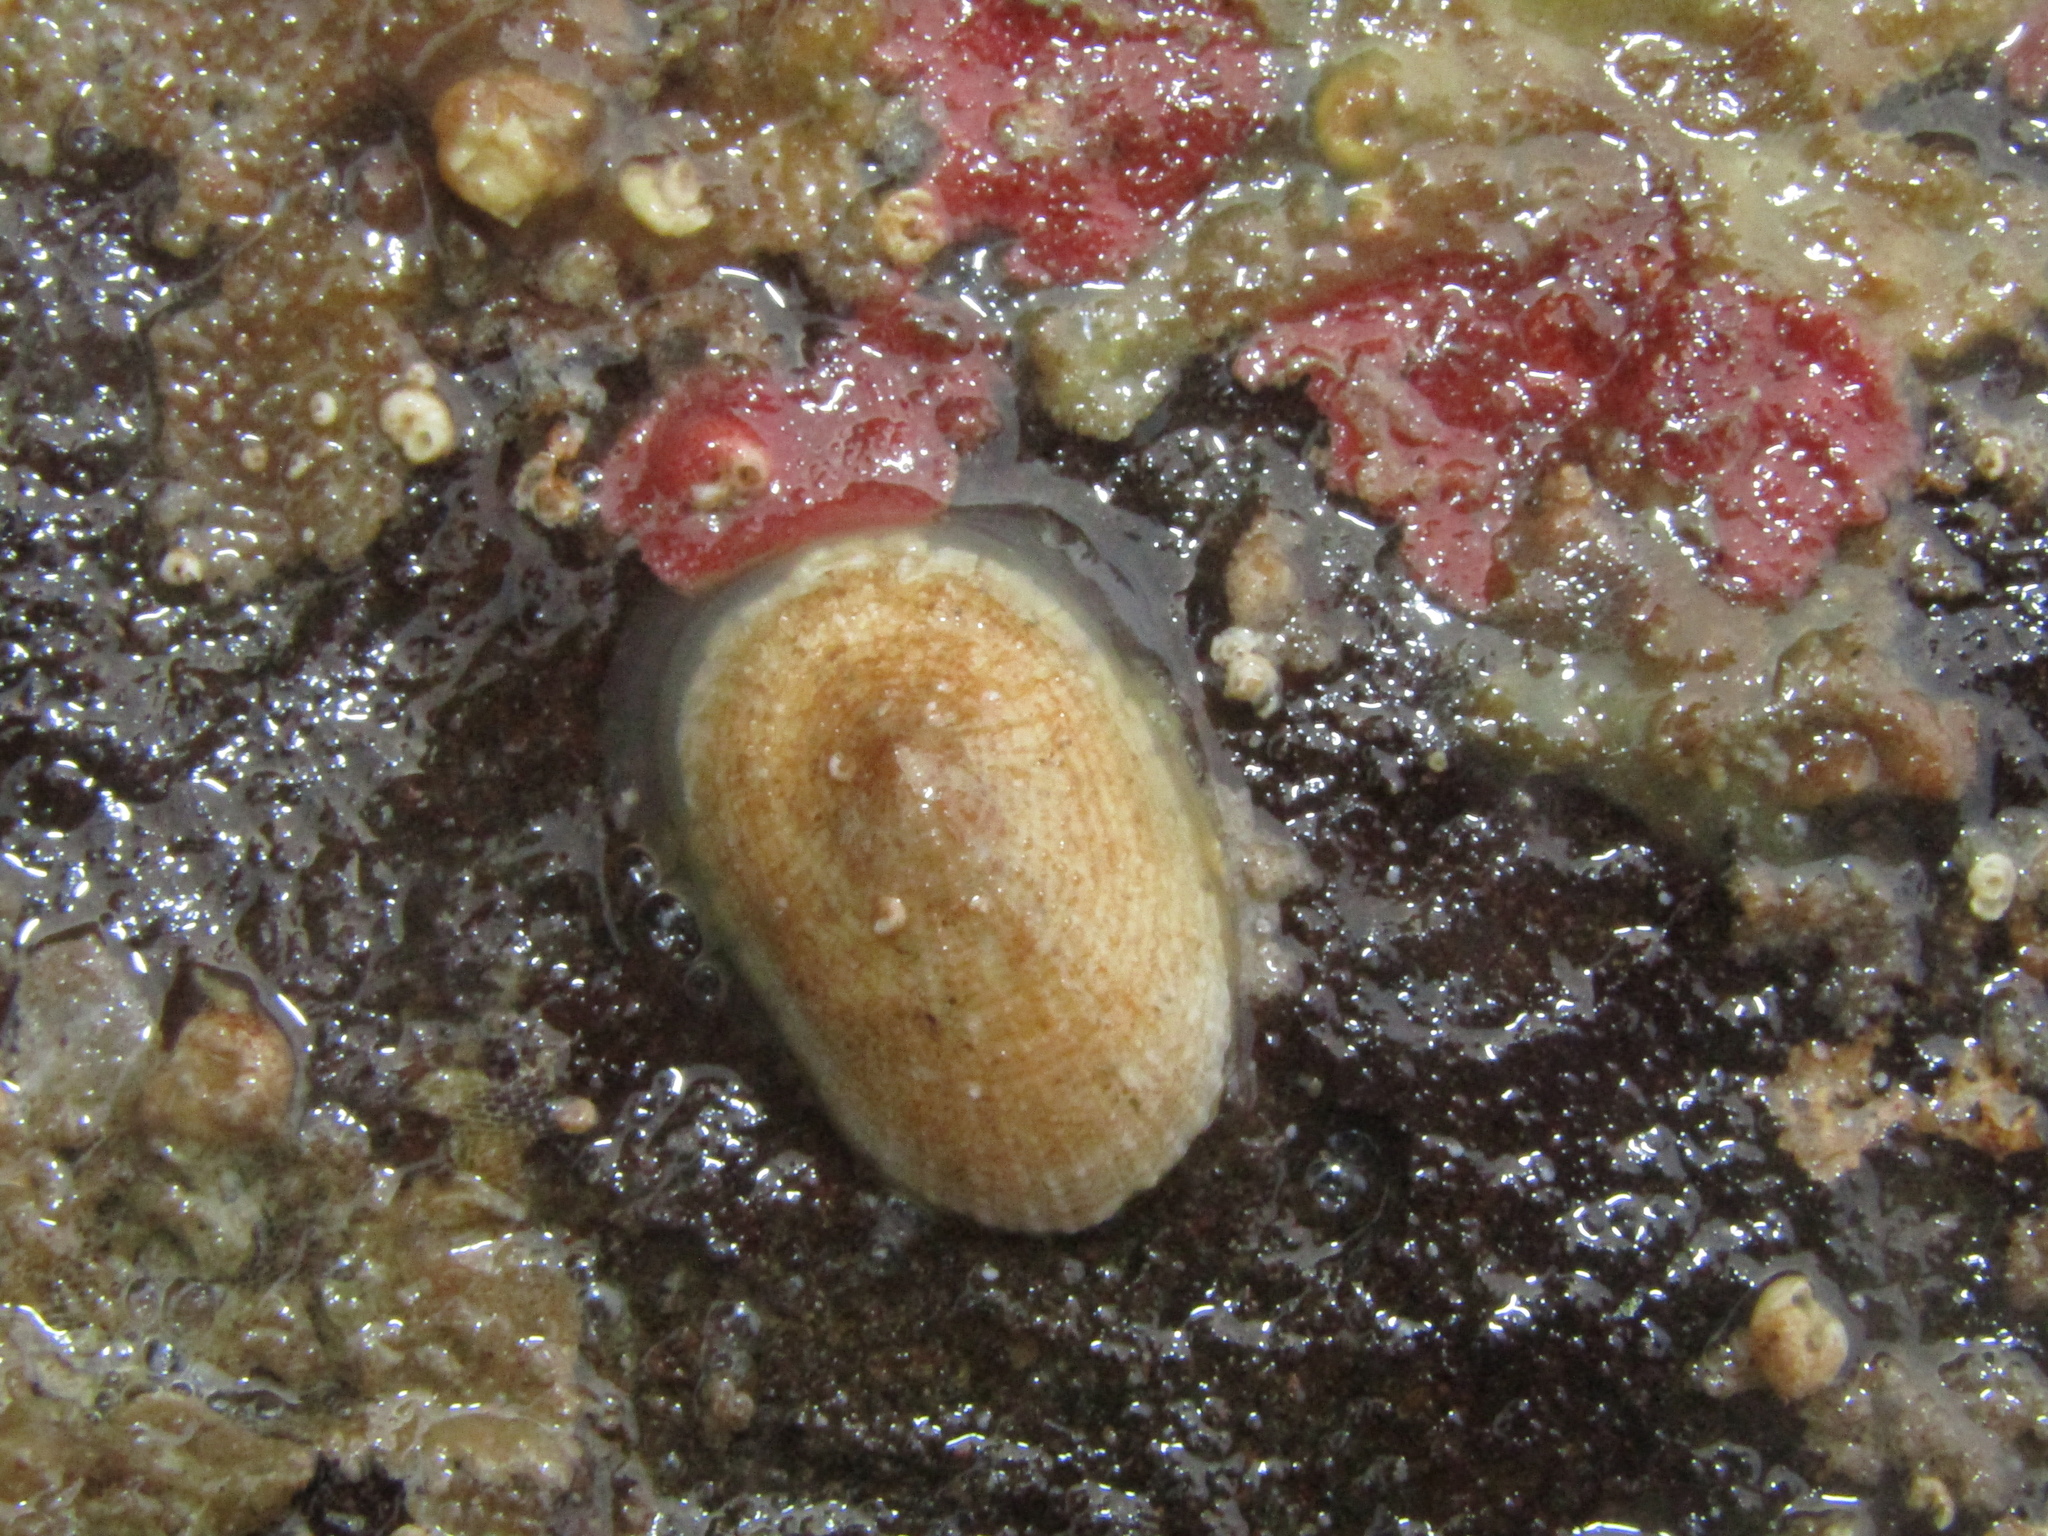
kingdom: Animalia
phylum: Mollusca
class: Gastropoda
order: Lepetellida
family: Fissurellidae
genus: Tugali
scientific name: Tugali suteri
